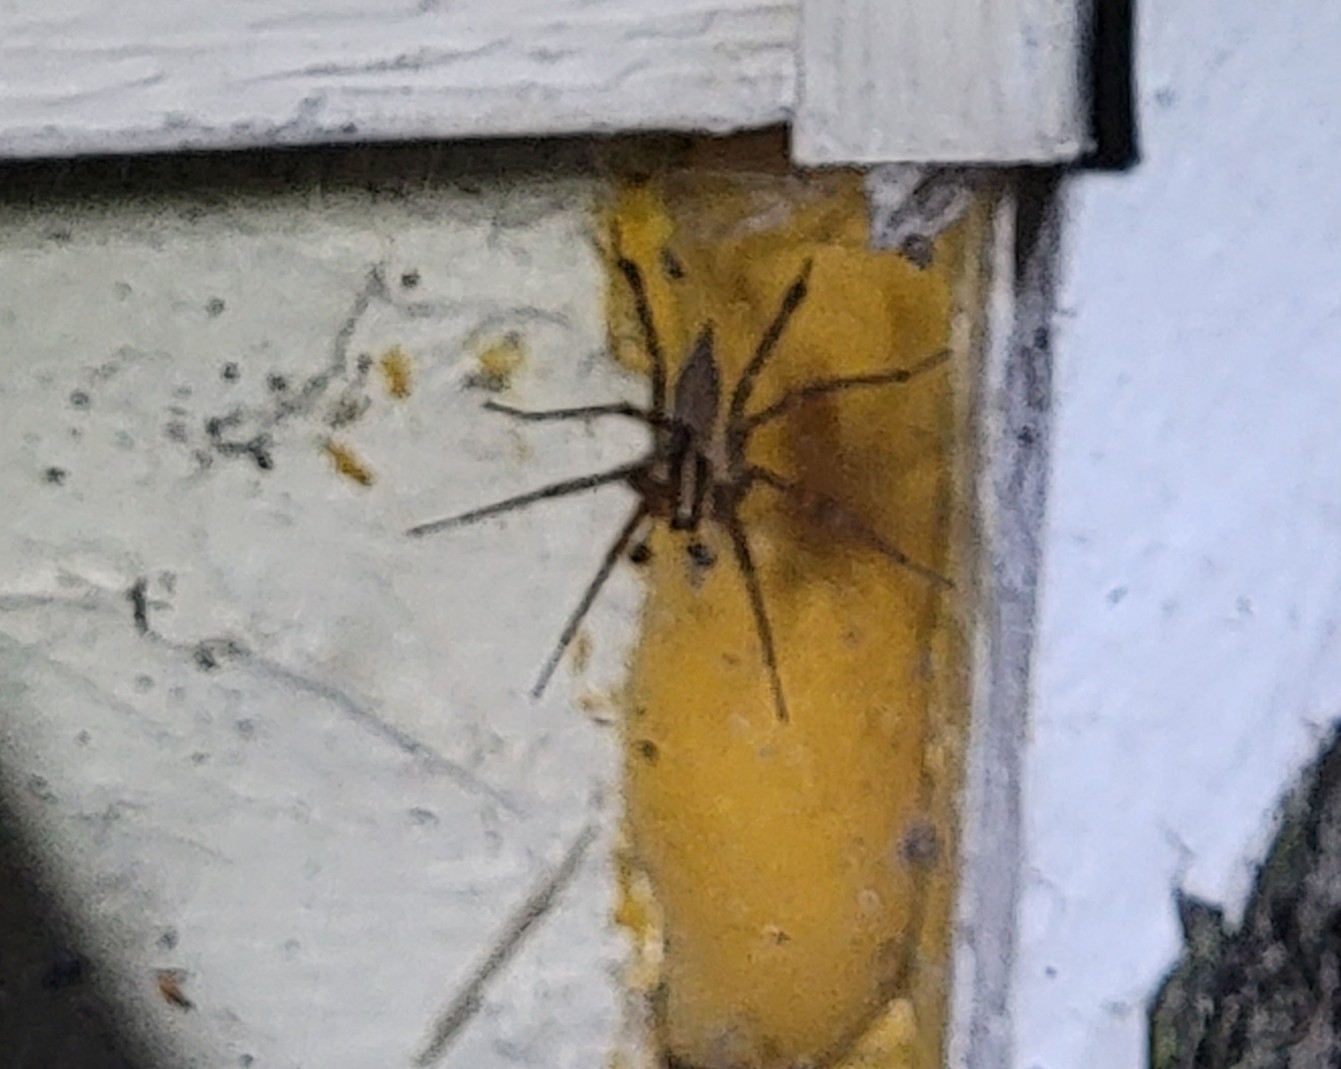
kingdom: Animalia
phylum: Arthropoda
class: Arachnida
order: Araneae
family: Agelenidae
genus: Agelenopsis
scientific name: Agelenopsis
